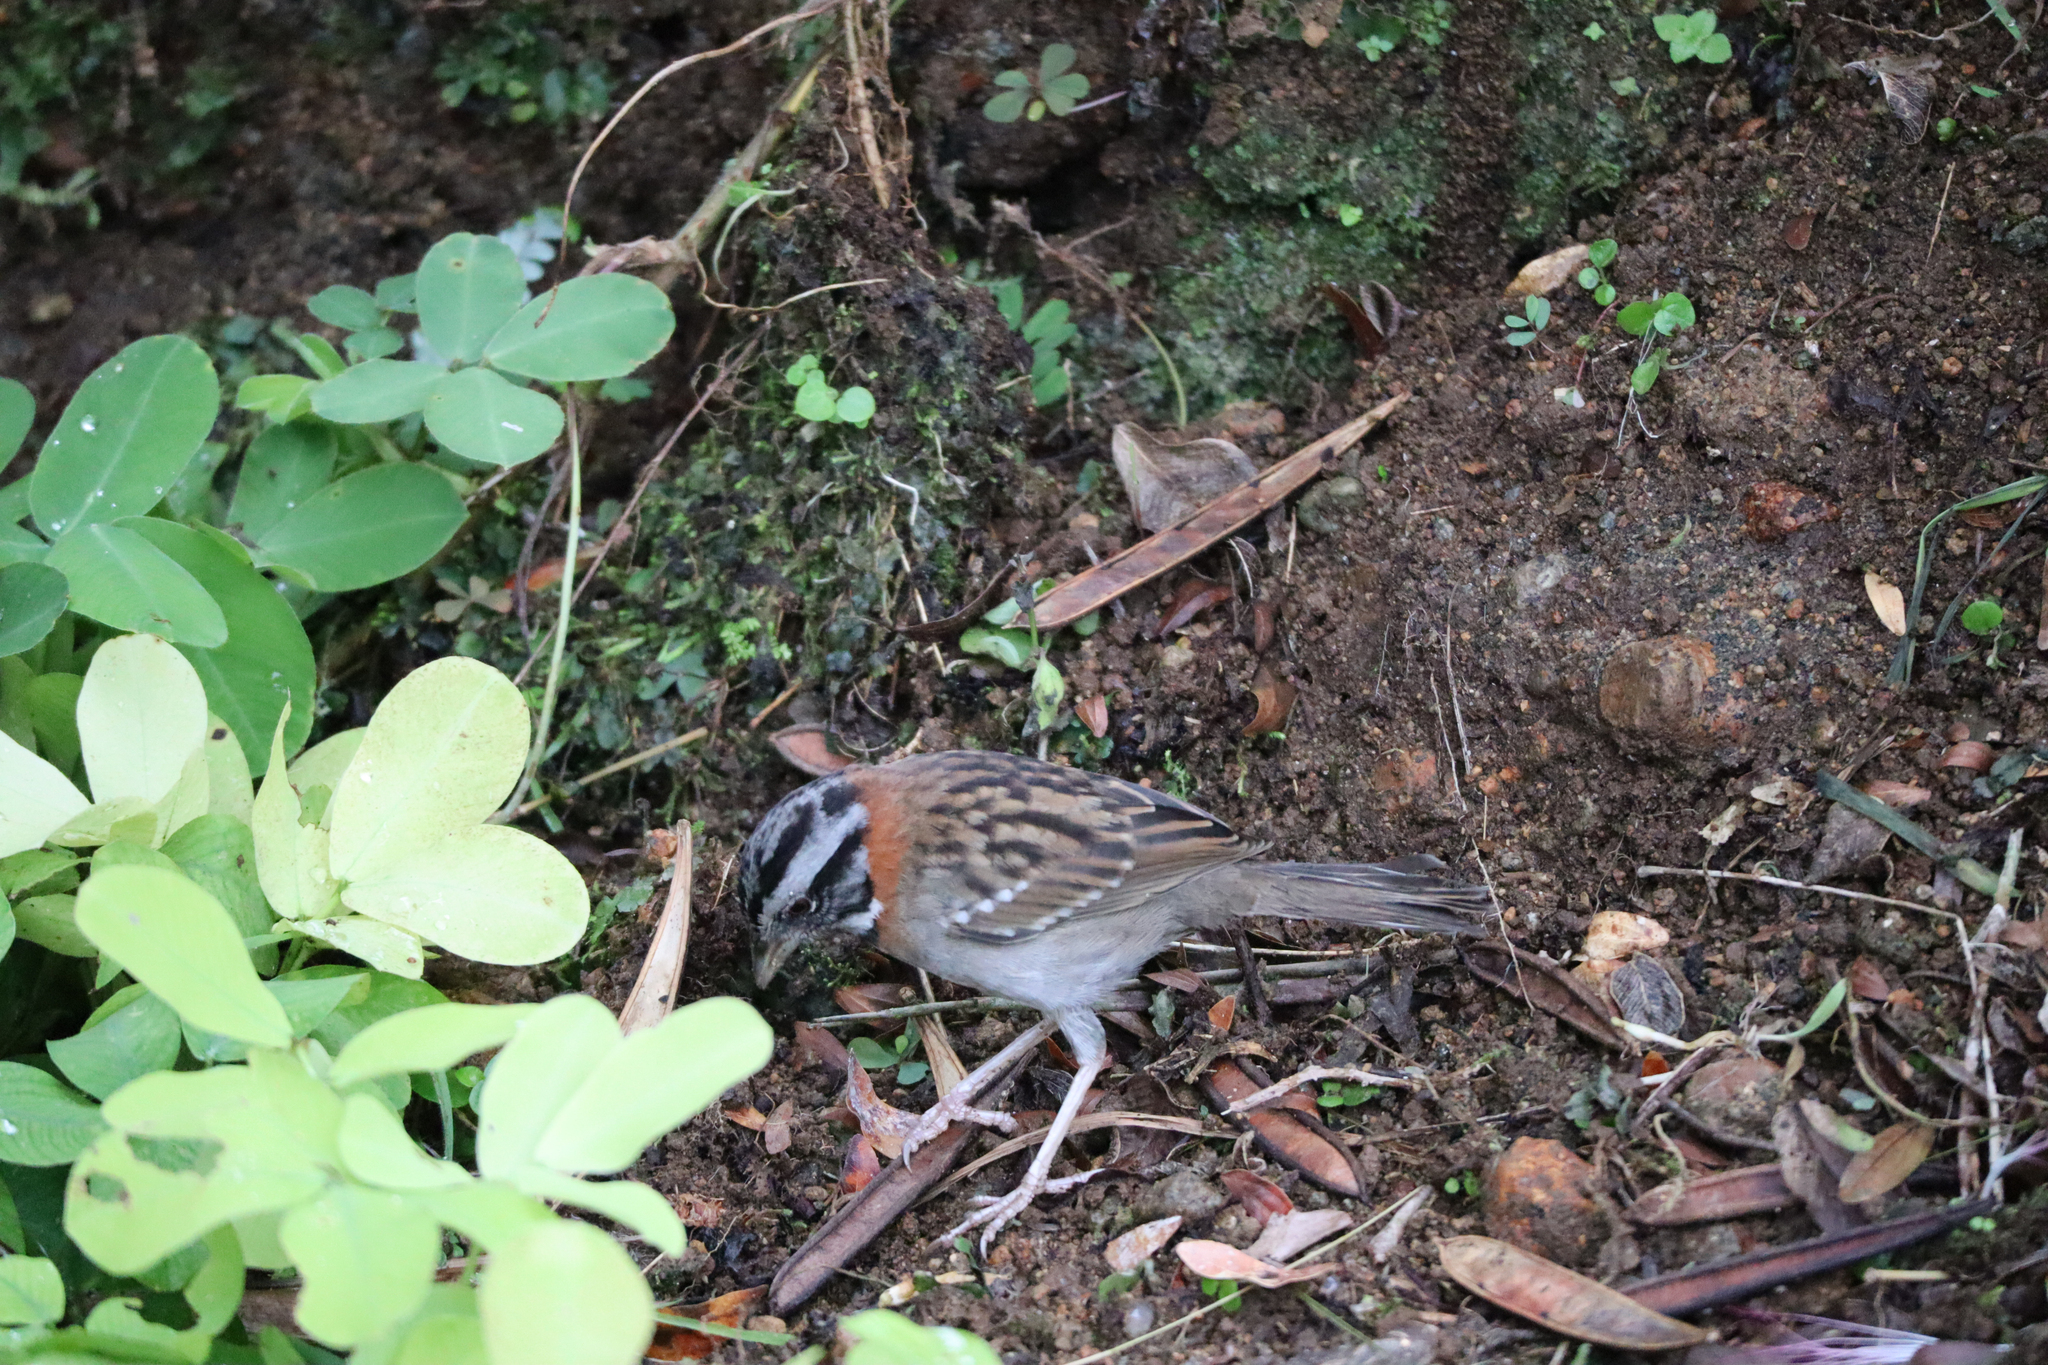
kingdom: Animalia
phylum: Chordata
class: Aves
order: Passeriformes
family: Passerellidae
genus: Zonotrichia
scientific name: Zonotrichia capensis
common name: Rufous-collared sparrow
